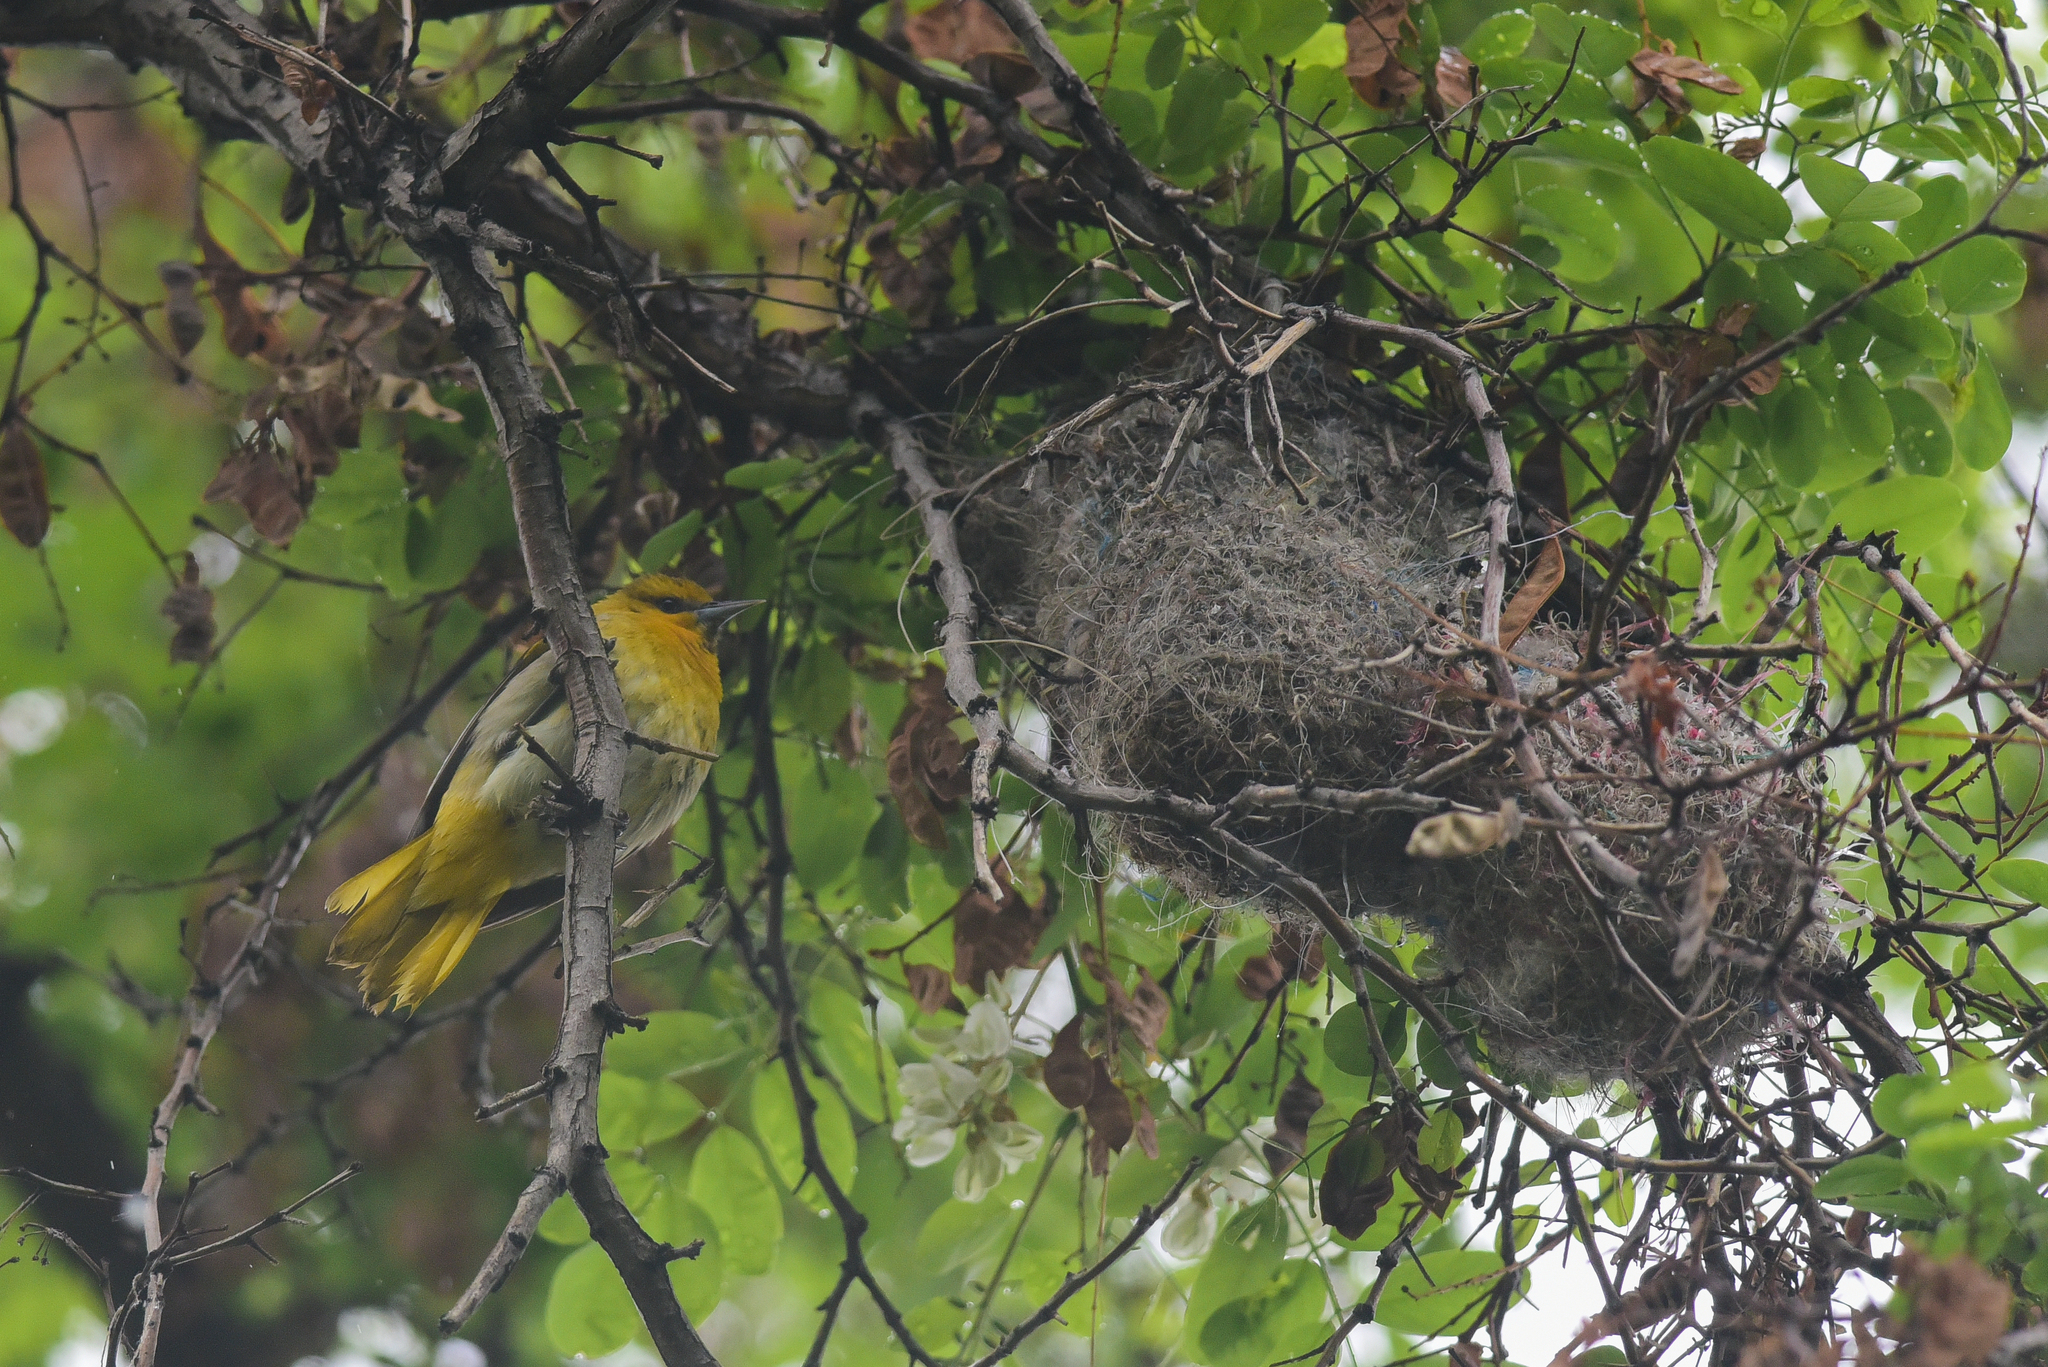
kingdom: Animalia
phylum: Chordata
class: Aves
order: Passeriformes
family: Icteridae
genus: Icterus
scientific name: Icterus bullockii
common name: Bullock's oriole
